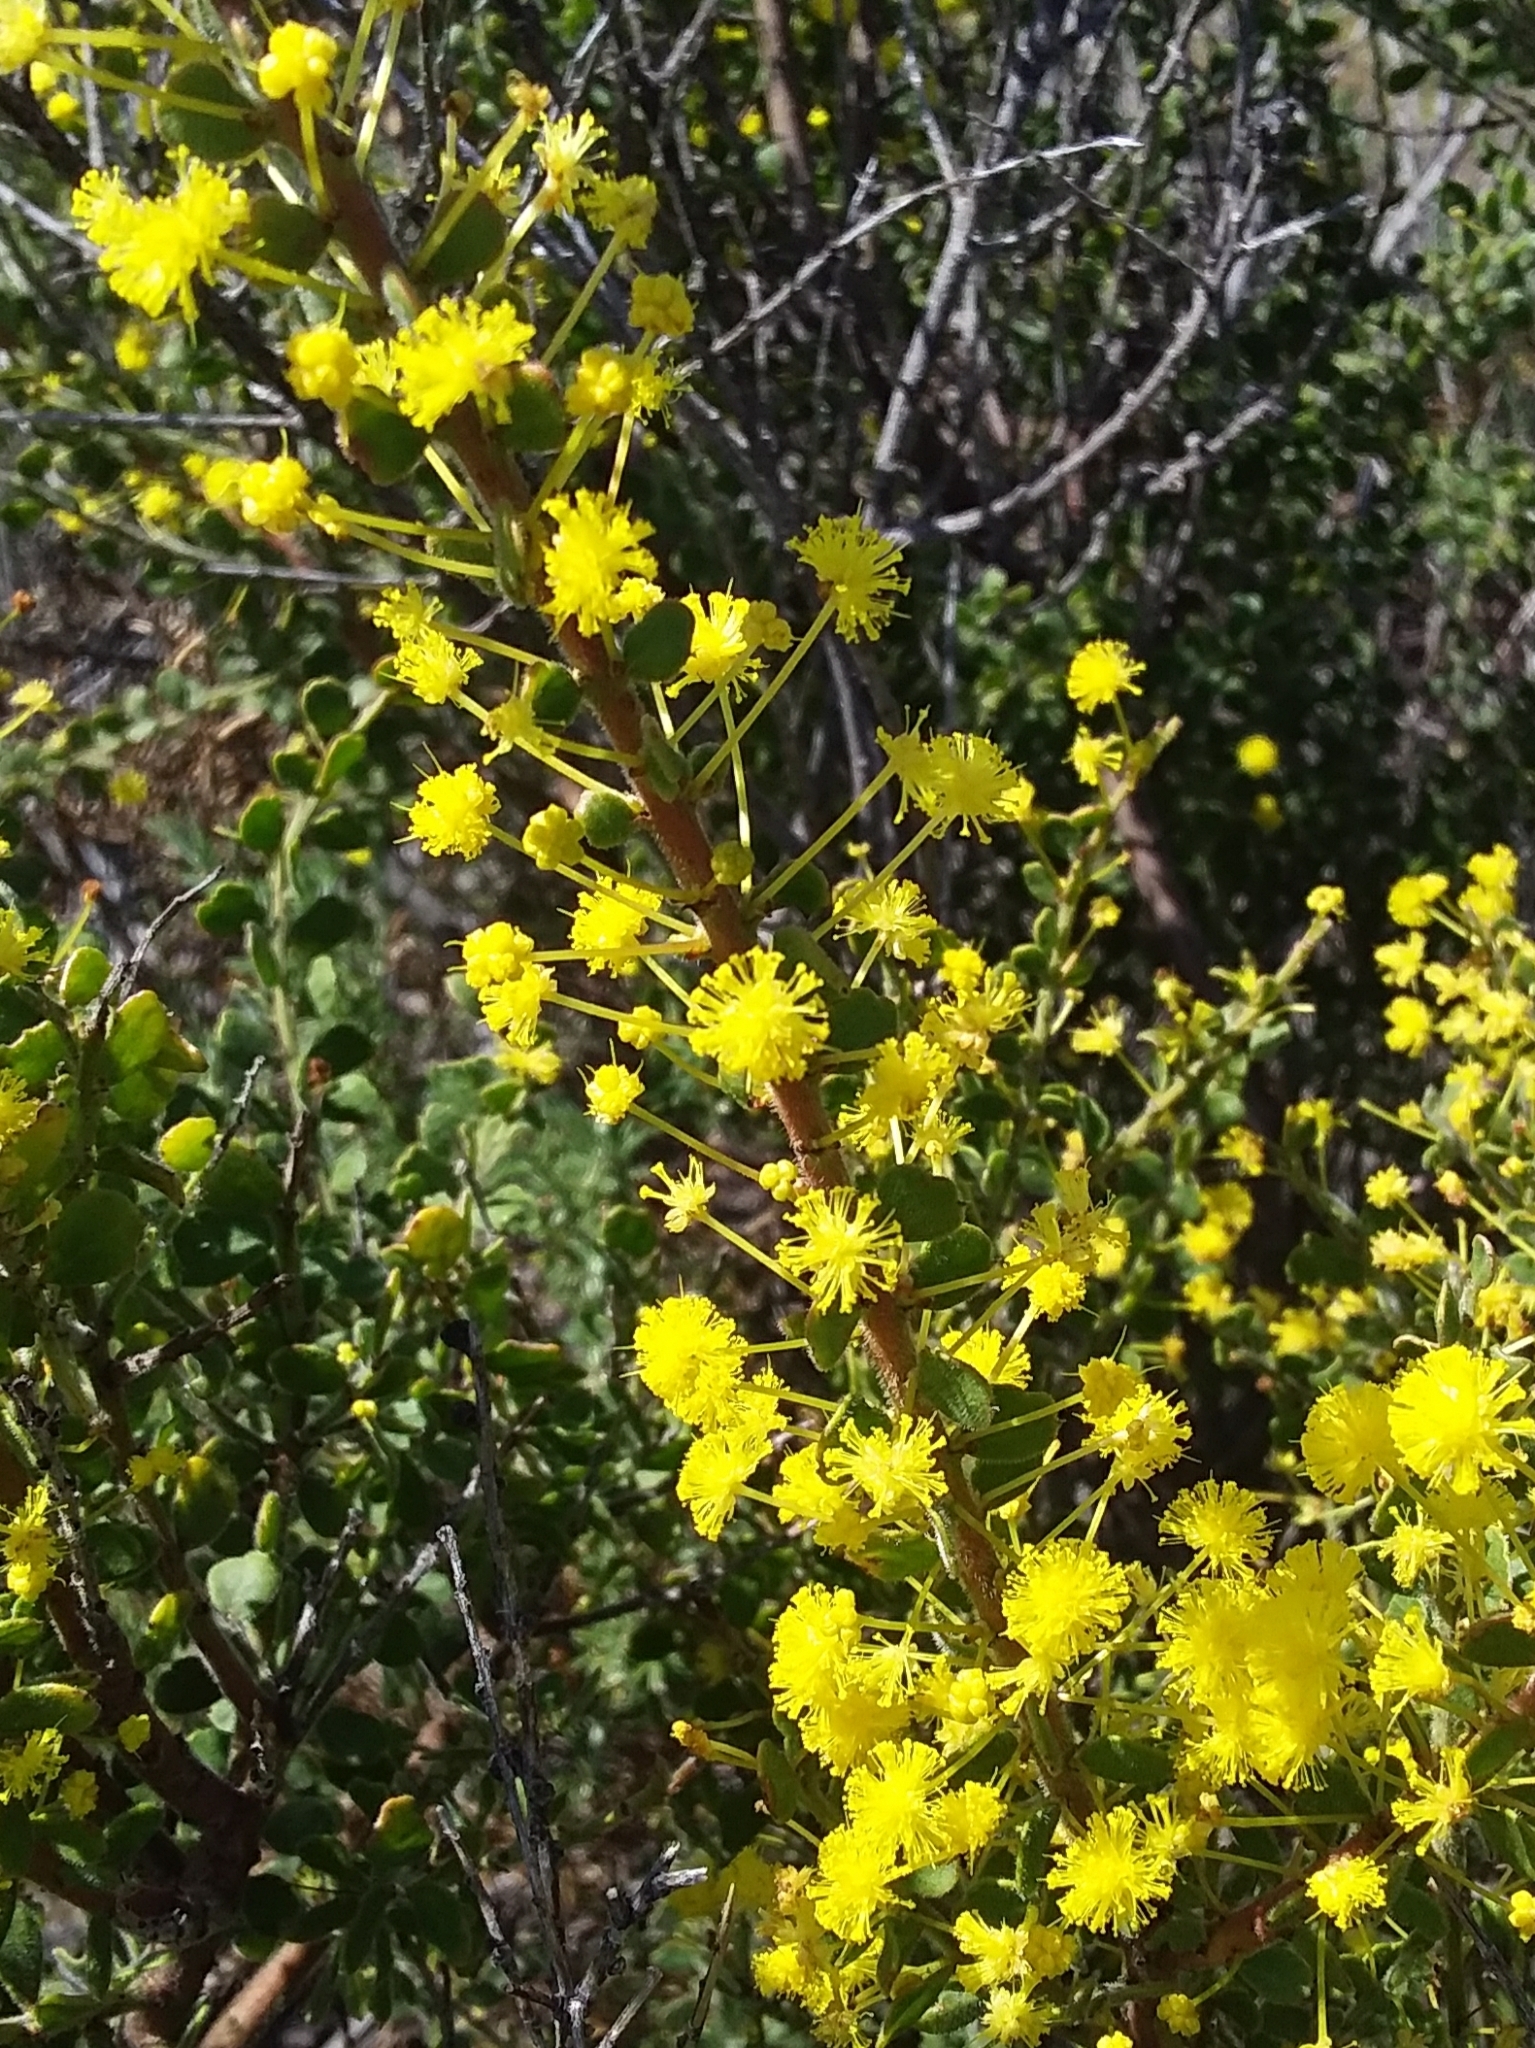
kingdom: Plantae
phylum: Tracheophyta
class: Magnoliopsida
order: Fabales
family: Fabaceae
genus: Acacia
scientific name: Acacia acinacea
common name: Gold-dust acacia
